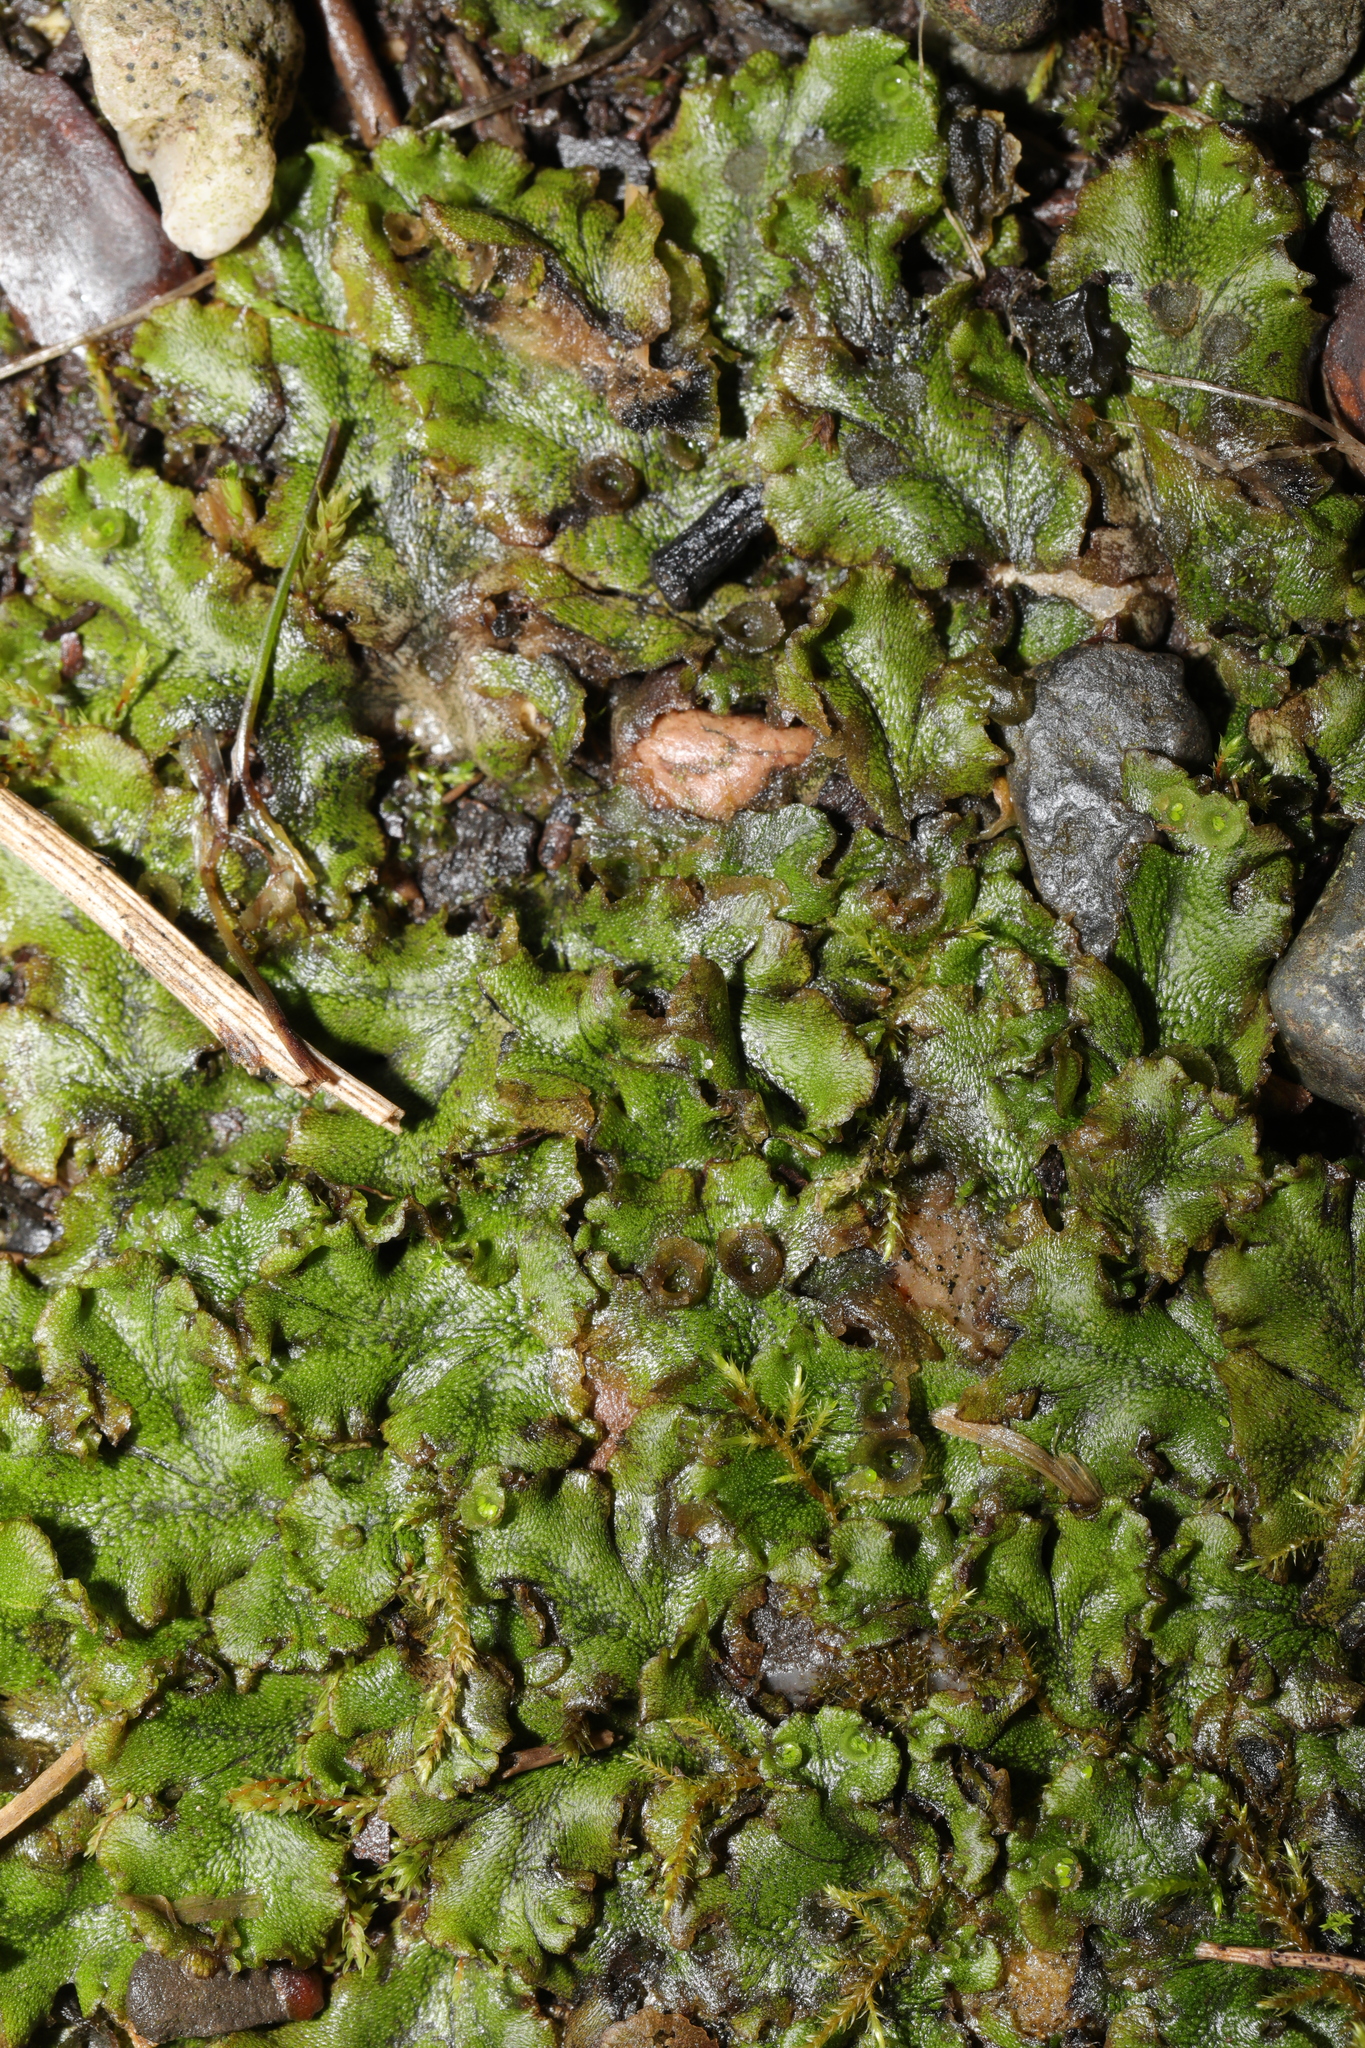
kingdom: Plantae
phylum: Marchantiophyta
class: Marchantiopsida
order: Marchantiales
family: Marchantiaceae
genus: Marchantia
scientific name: Marchantia polymorpha
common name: Common liverwort
